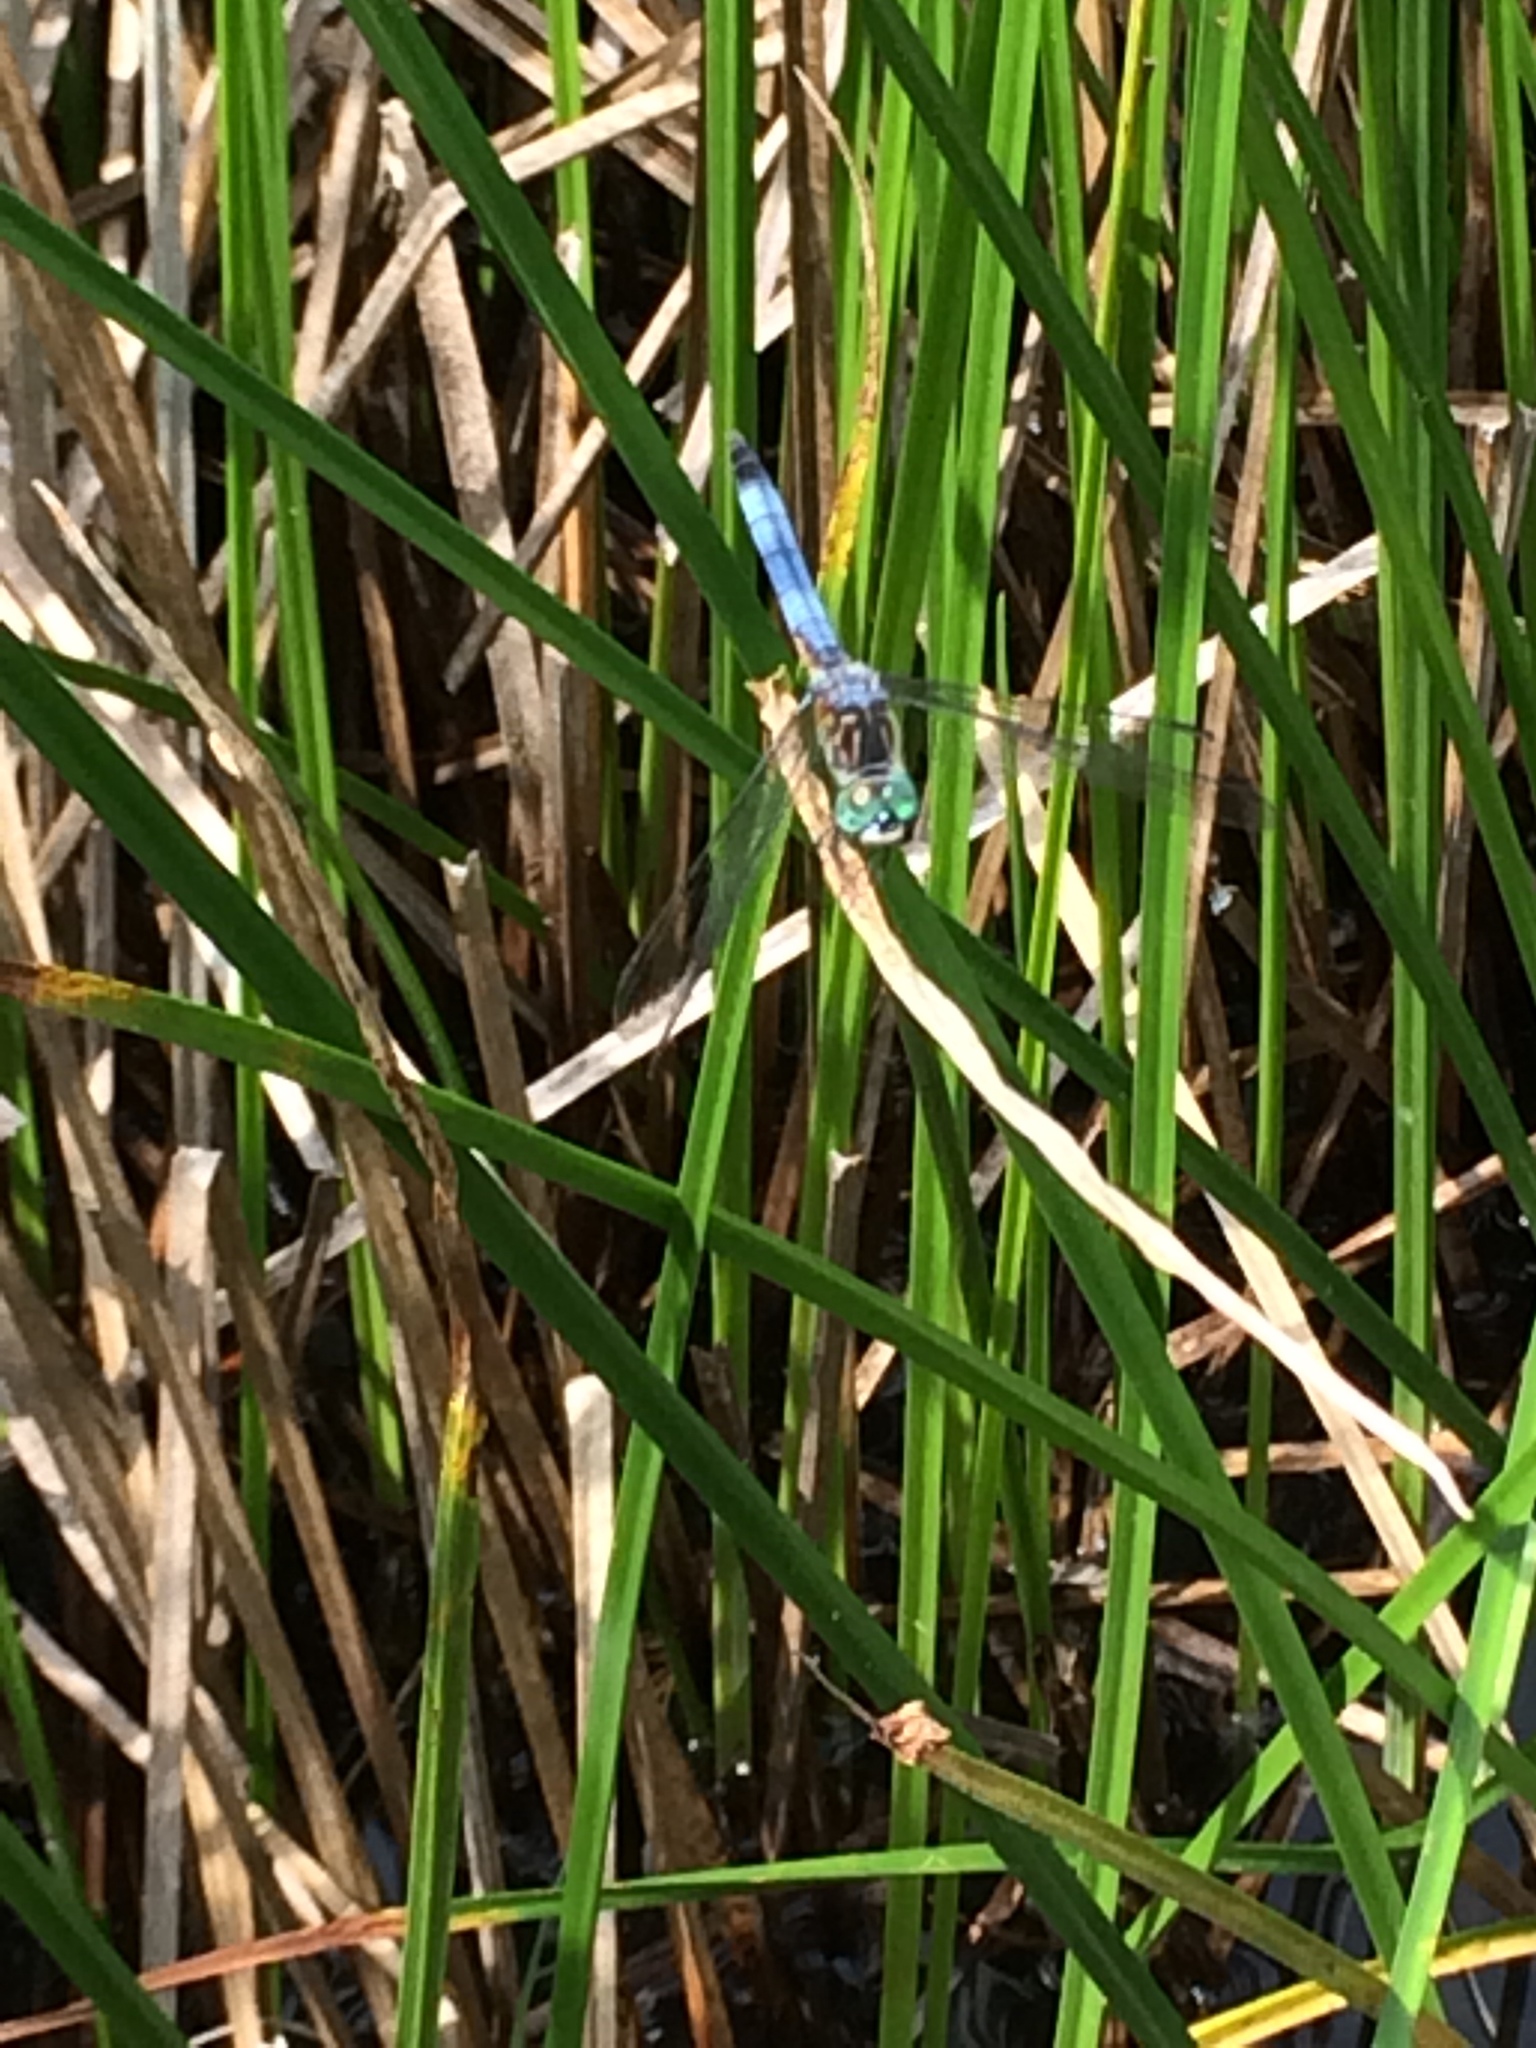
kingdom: Animalia
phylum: Arthropoda
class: Insecta
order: Odonata
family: Libellulidae
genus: Pachydiplax
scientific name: Pachydiplax longipennis
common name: Blue dasher
